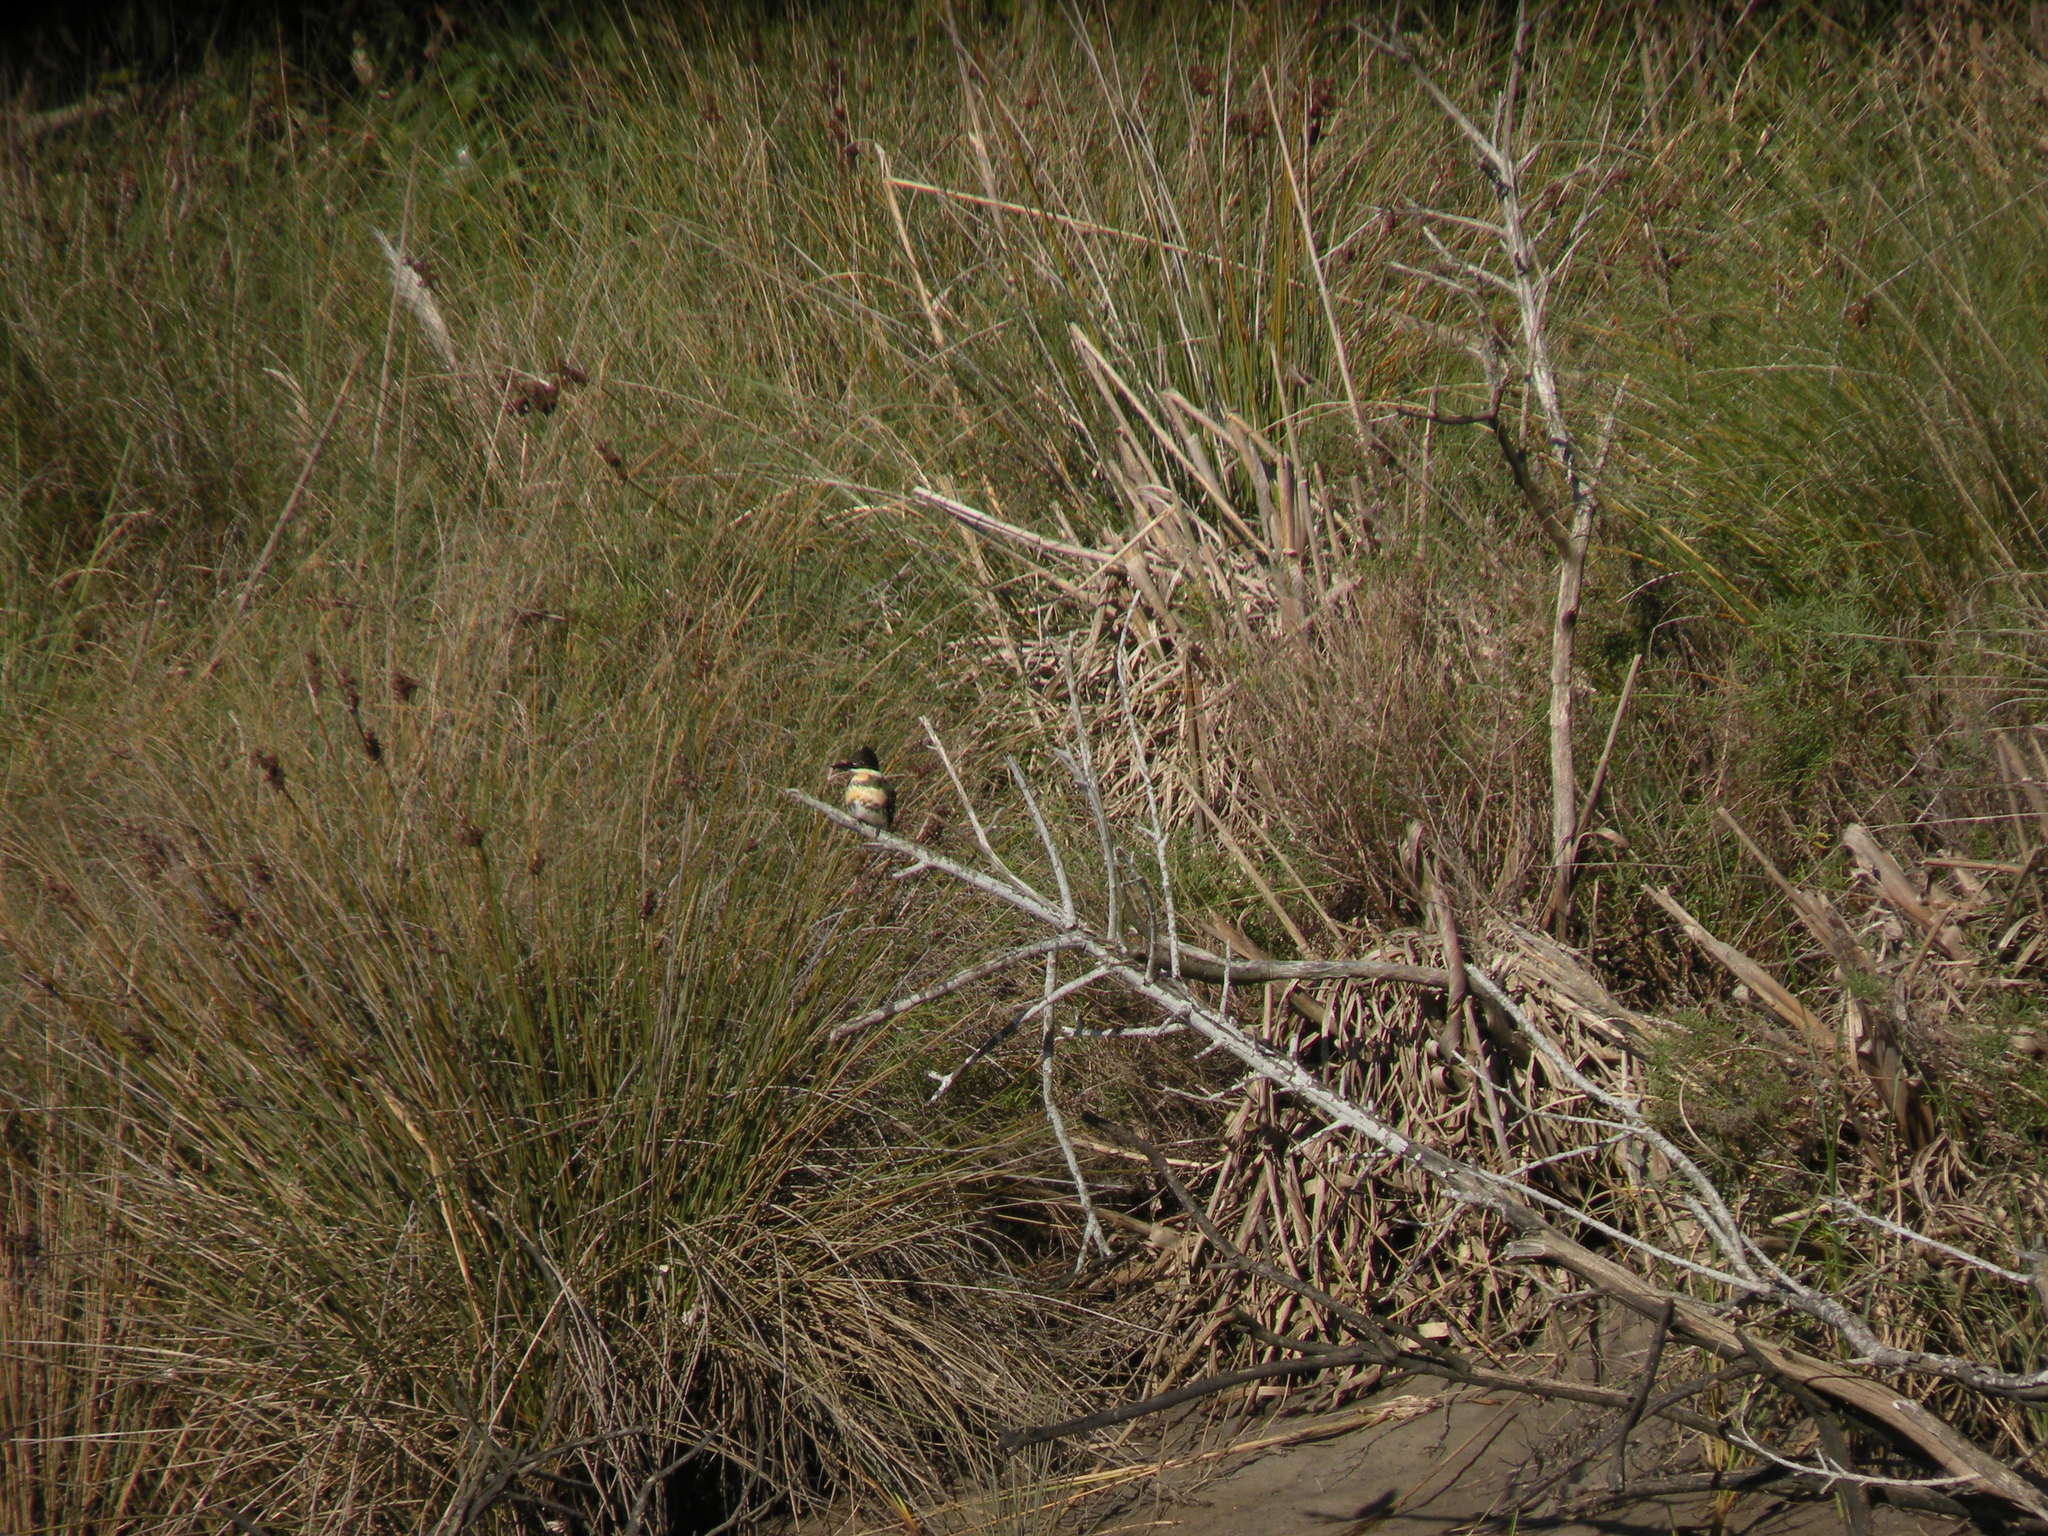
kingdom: Animalia
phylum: Chordata
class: Aves
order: Coraciiformes
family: Alcedinidae
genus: Chloroceryle
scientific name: Chloroceryle americana
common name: Green kingfisher
